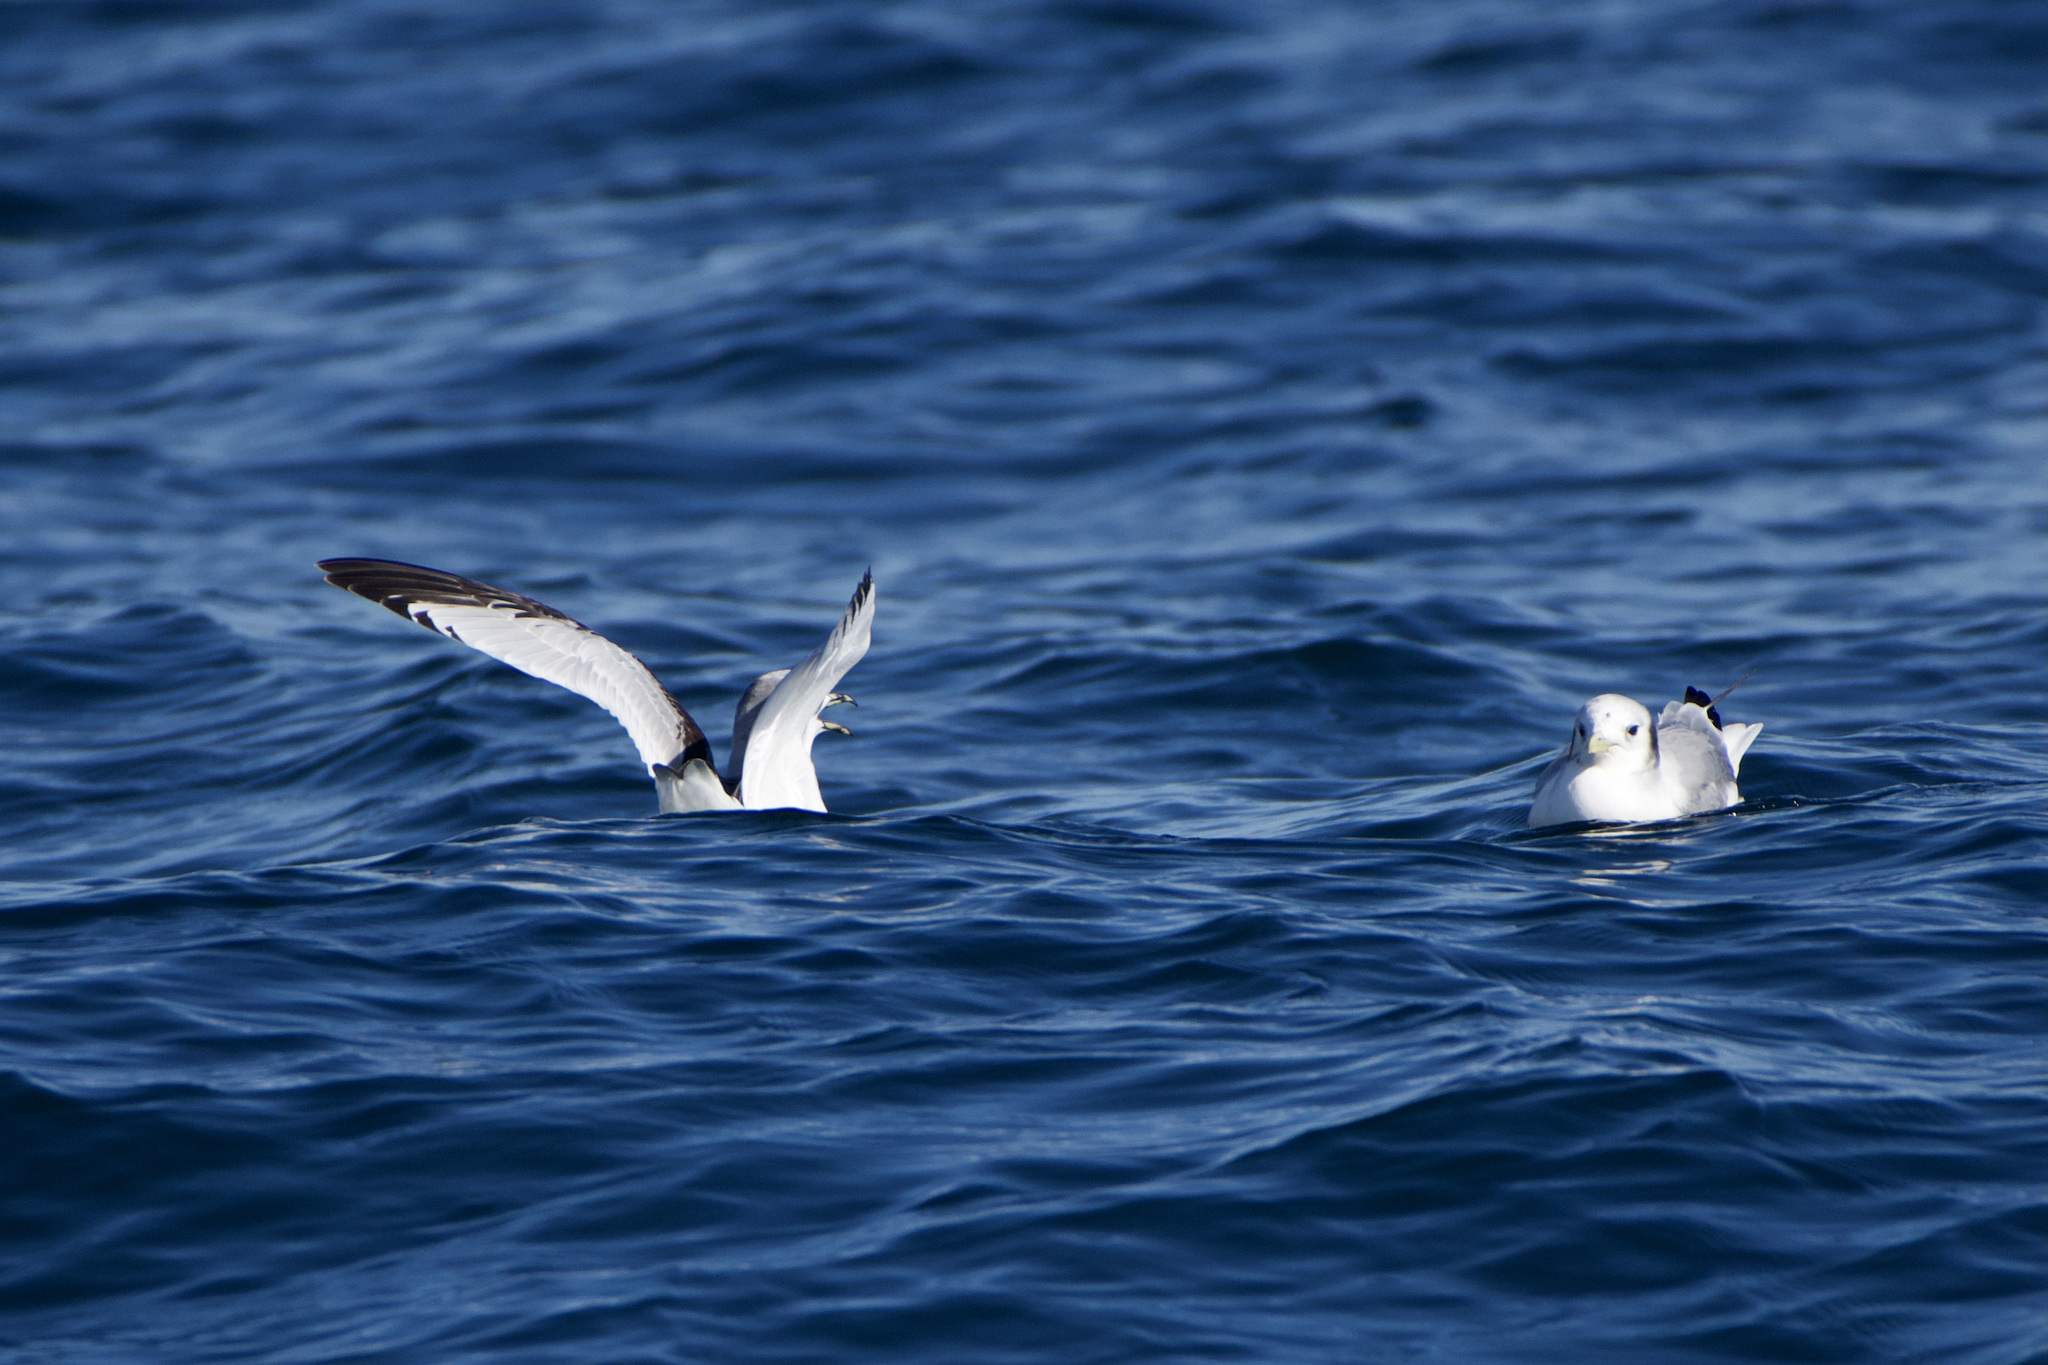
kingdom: Animalia
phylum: Chordata
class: Aves
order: Charadriiformes
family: Laridae
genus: Rissa
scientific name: Rissa tridactyla
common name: Black-legged kittiwake
